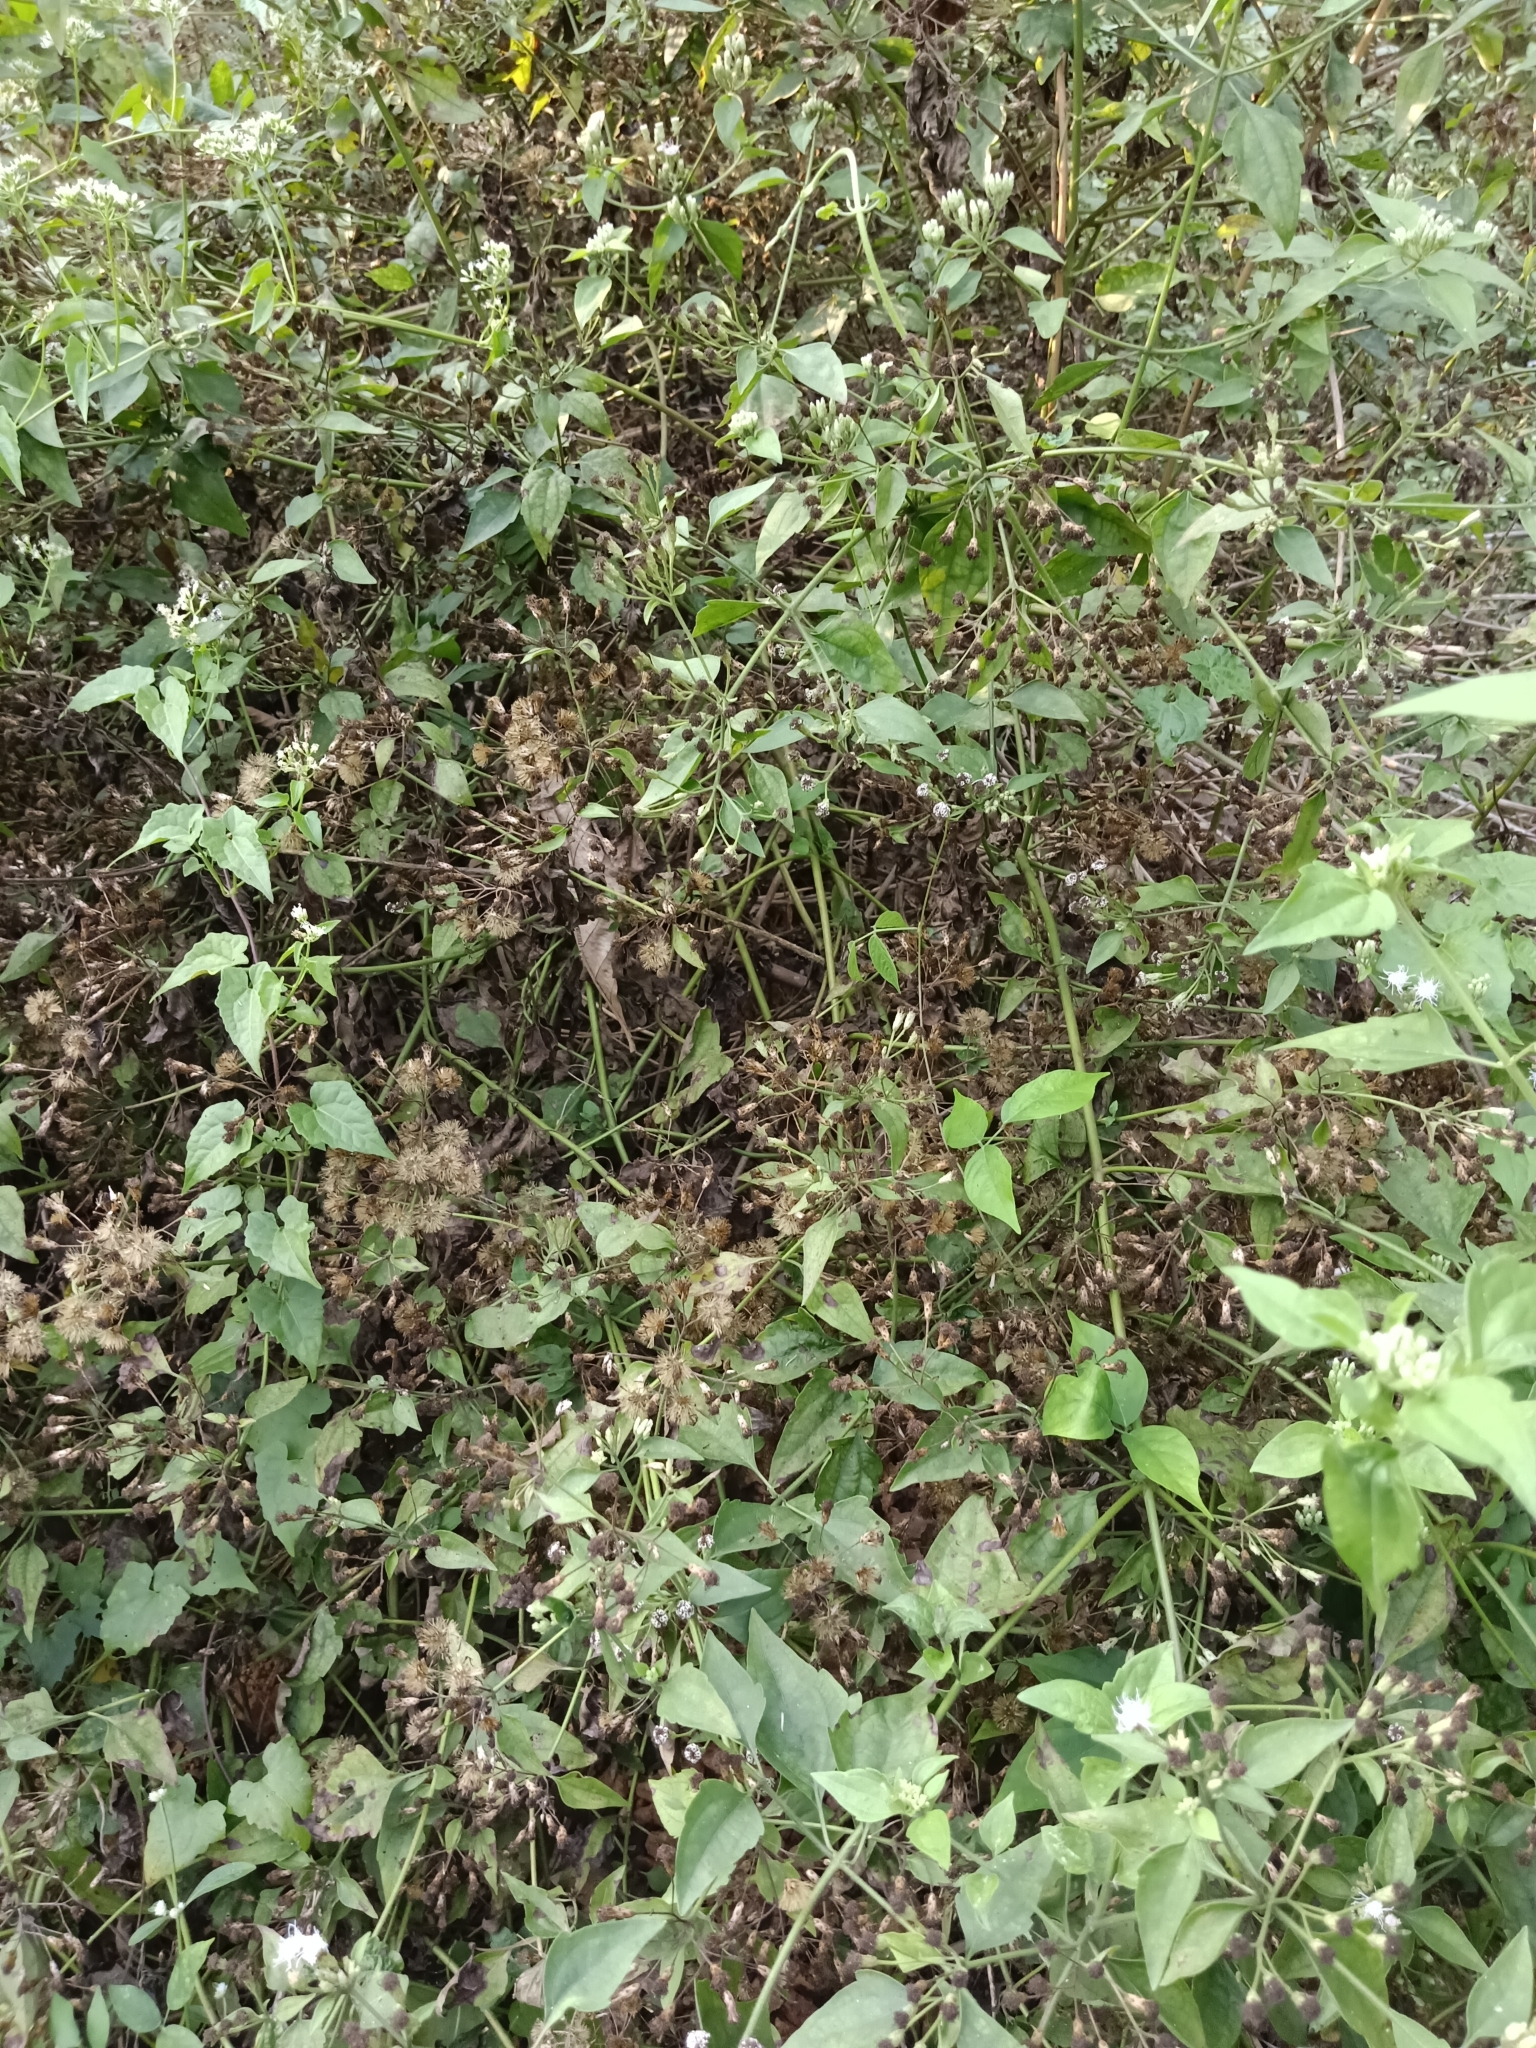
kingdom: Plantae
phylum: Tracheophyta
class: Magnoliopsida
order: Asterales
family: Asteraceae
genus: Chromolaena
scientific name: Chromolaena odorata
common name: Siamweed
